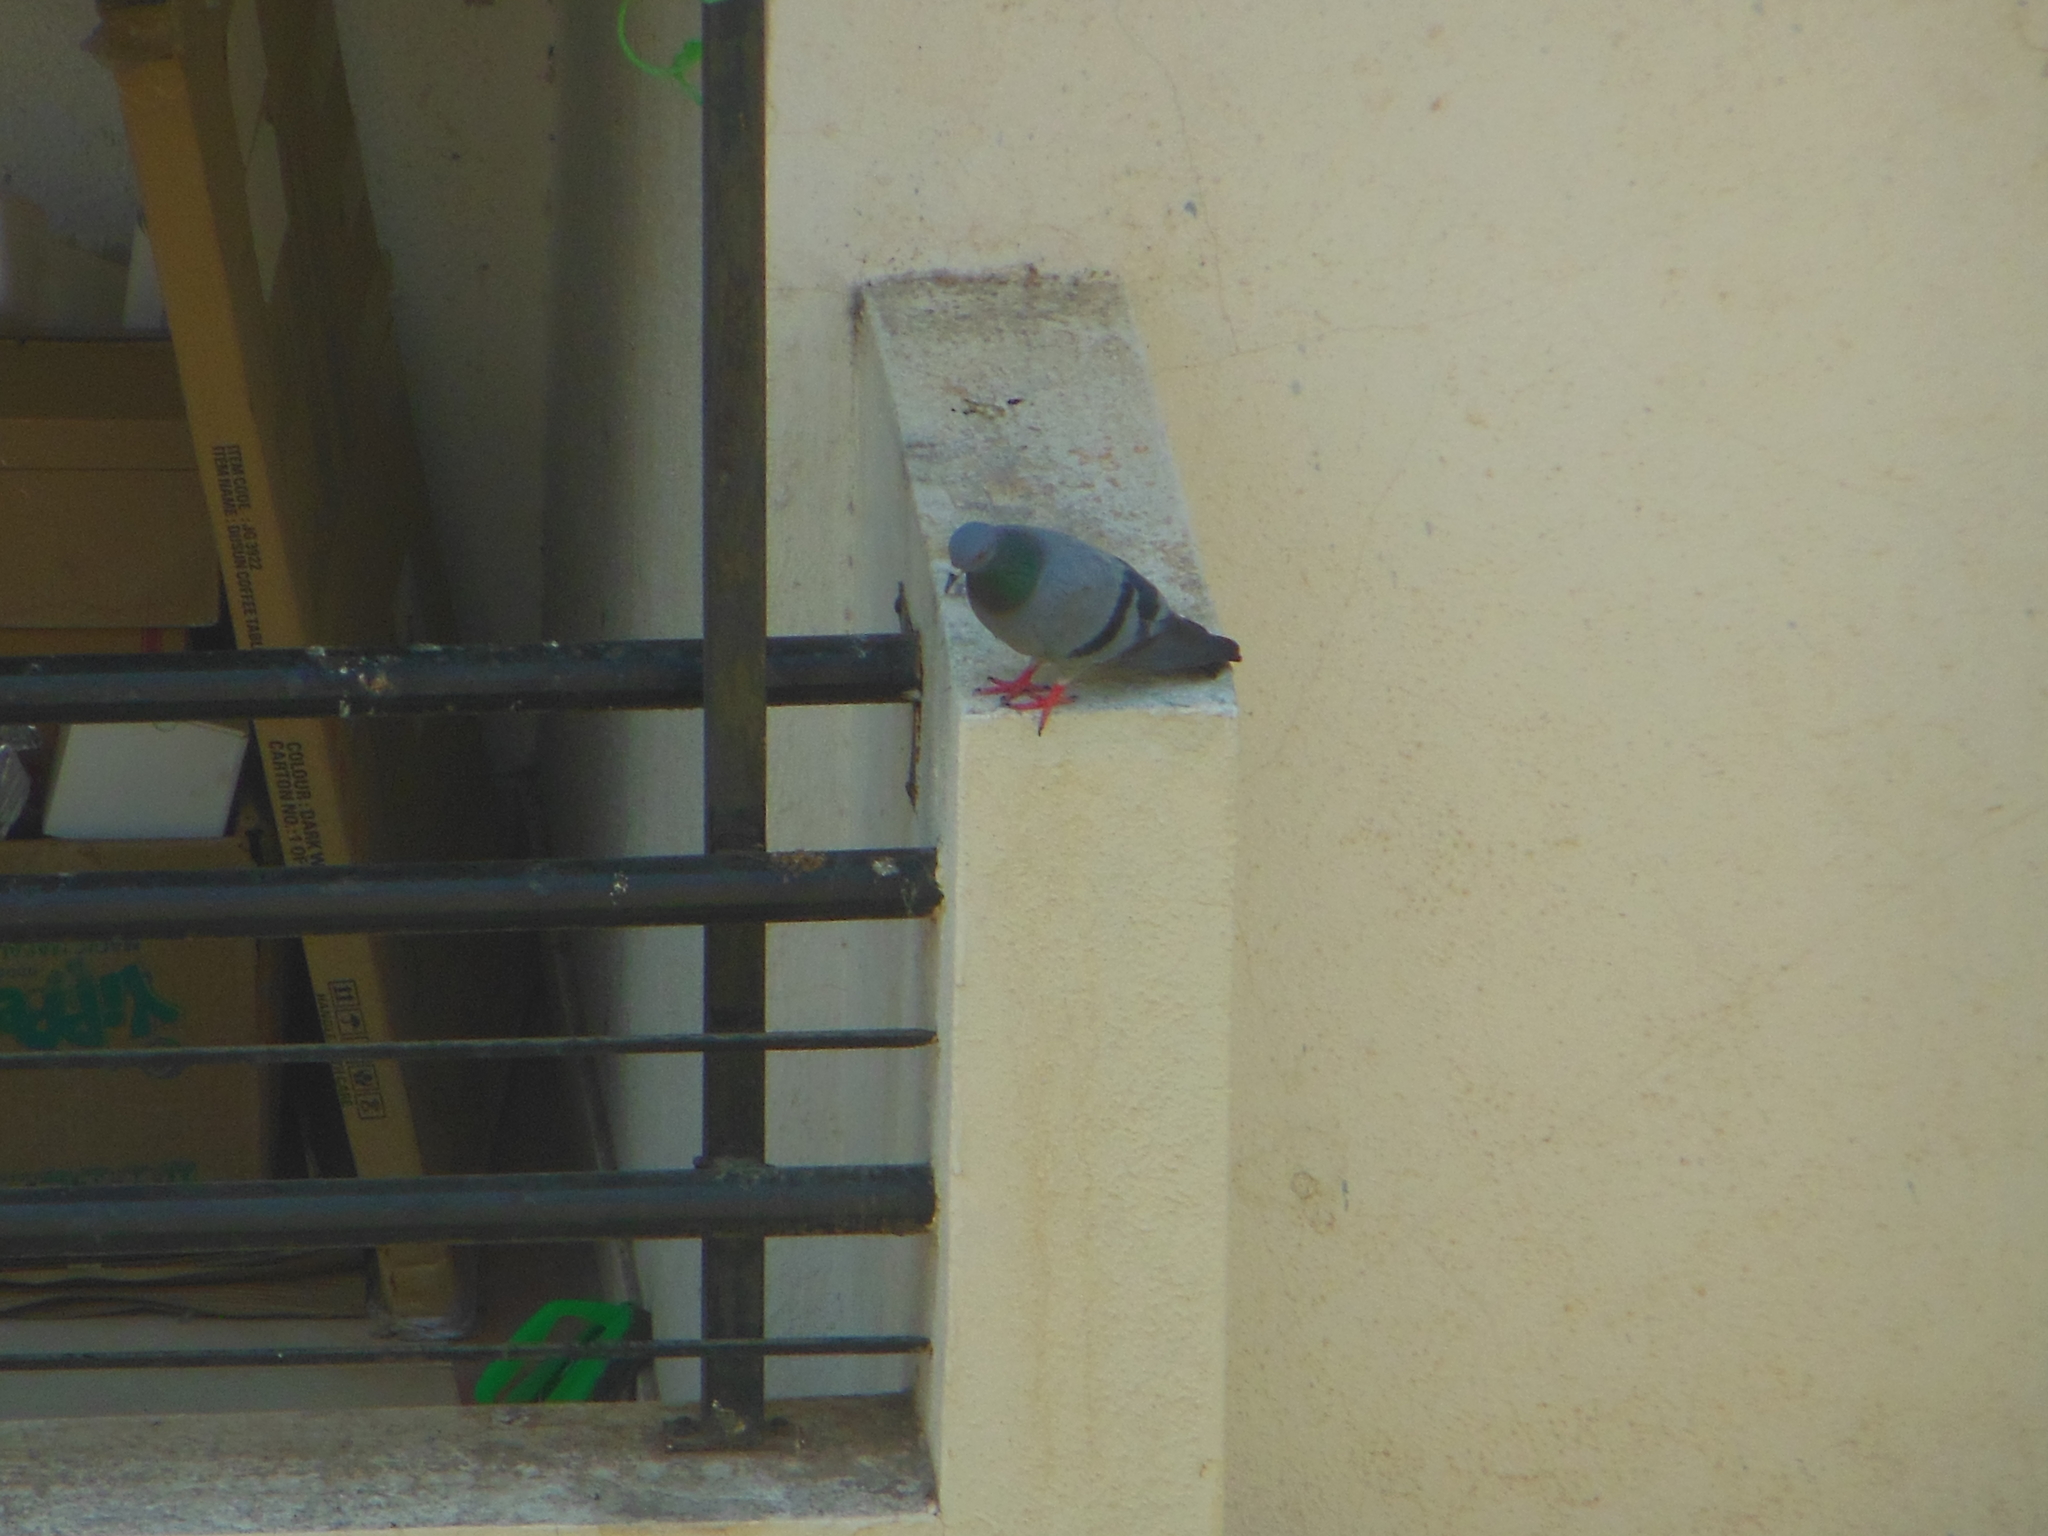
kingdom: Animalia
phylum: Chordata
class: Aves
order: Columbiformes
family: Columbidae
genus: Columba
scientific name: Columba livia
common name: Rock pigeon
